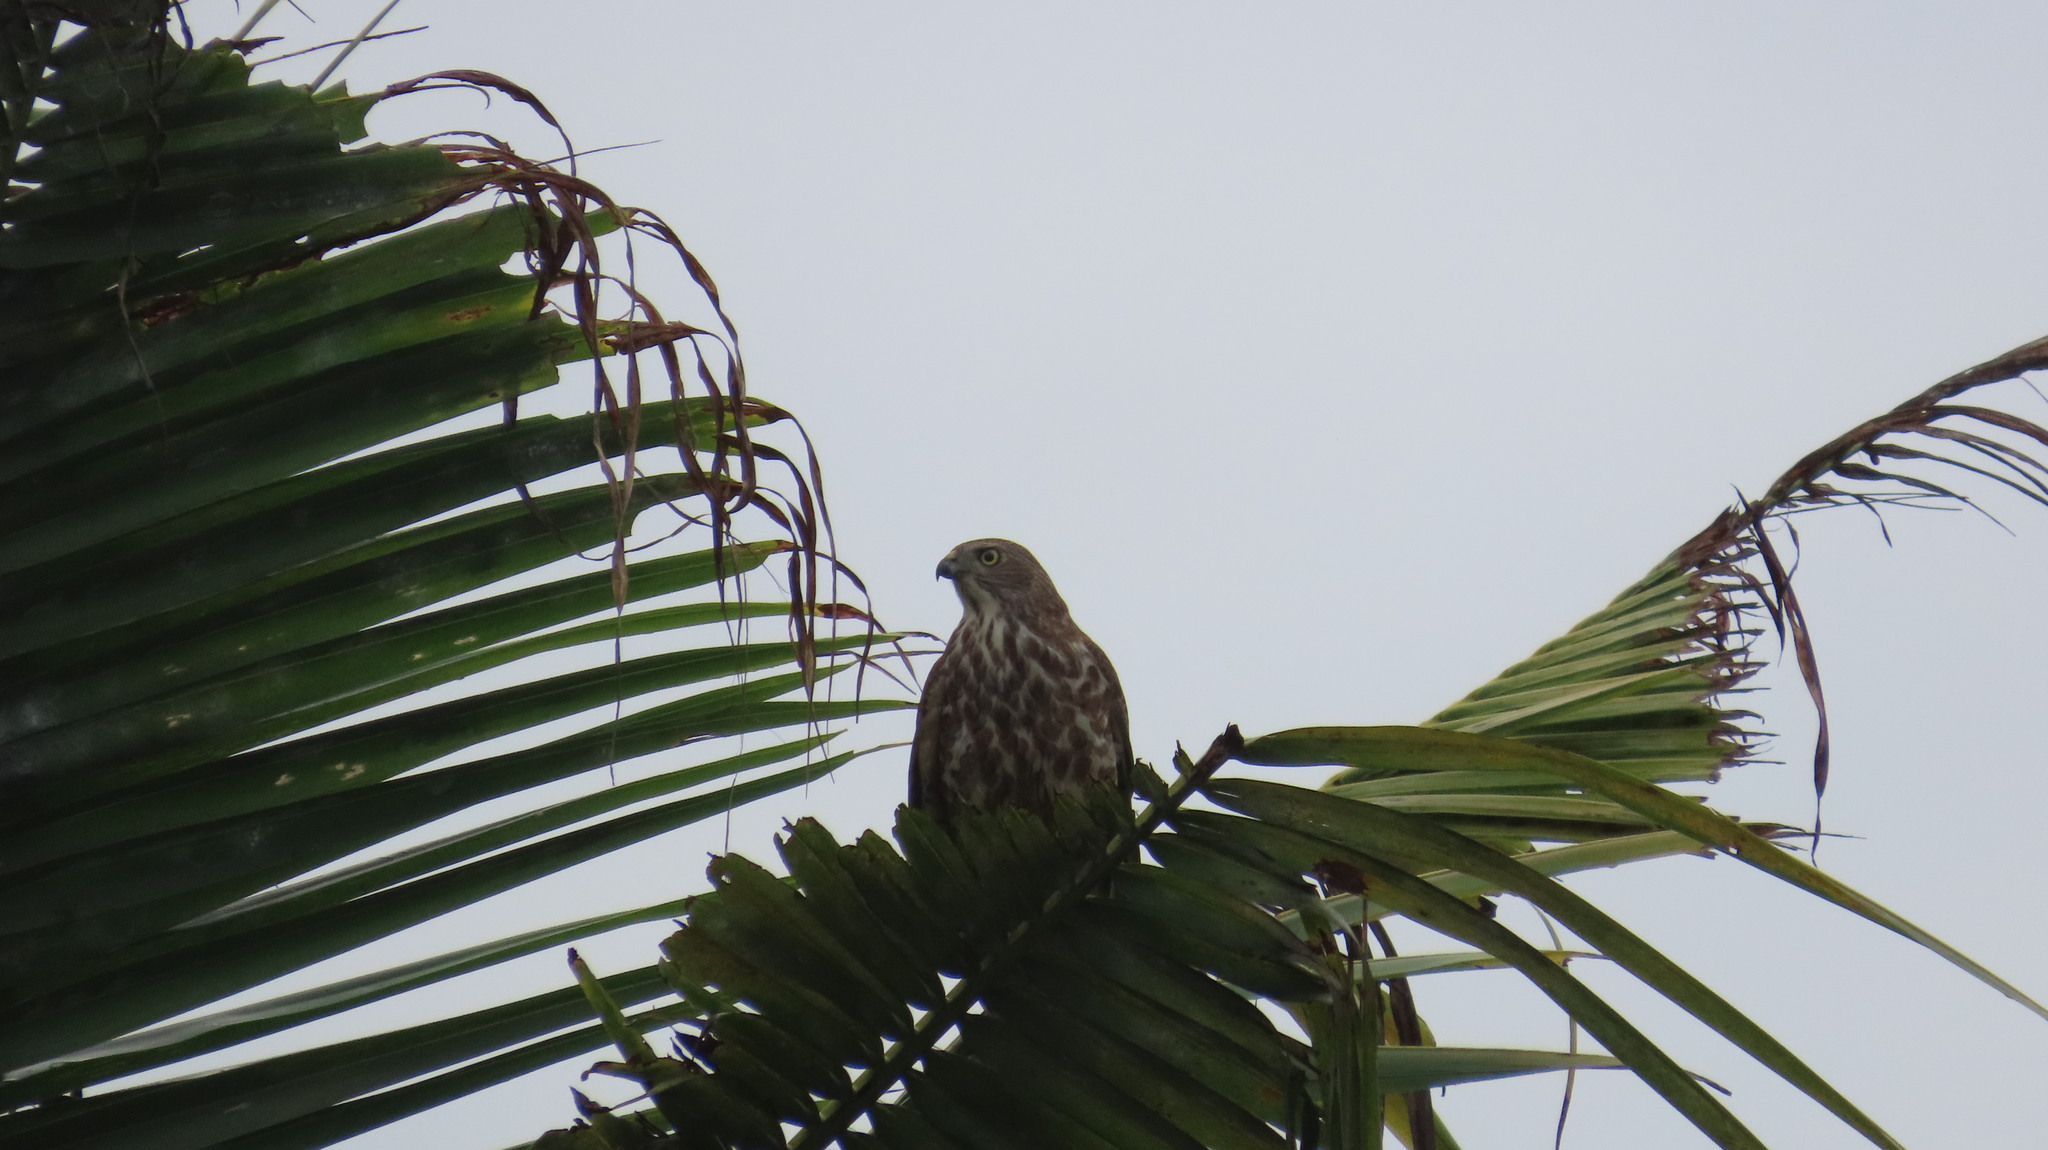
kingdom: Animalia
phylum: Chordata
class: Aves
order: Accipitriformes
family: Accipitridae
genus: Accipiter
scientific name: Accipiter badius
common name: Shikra
